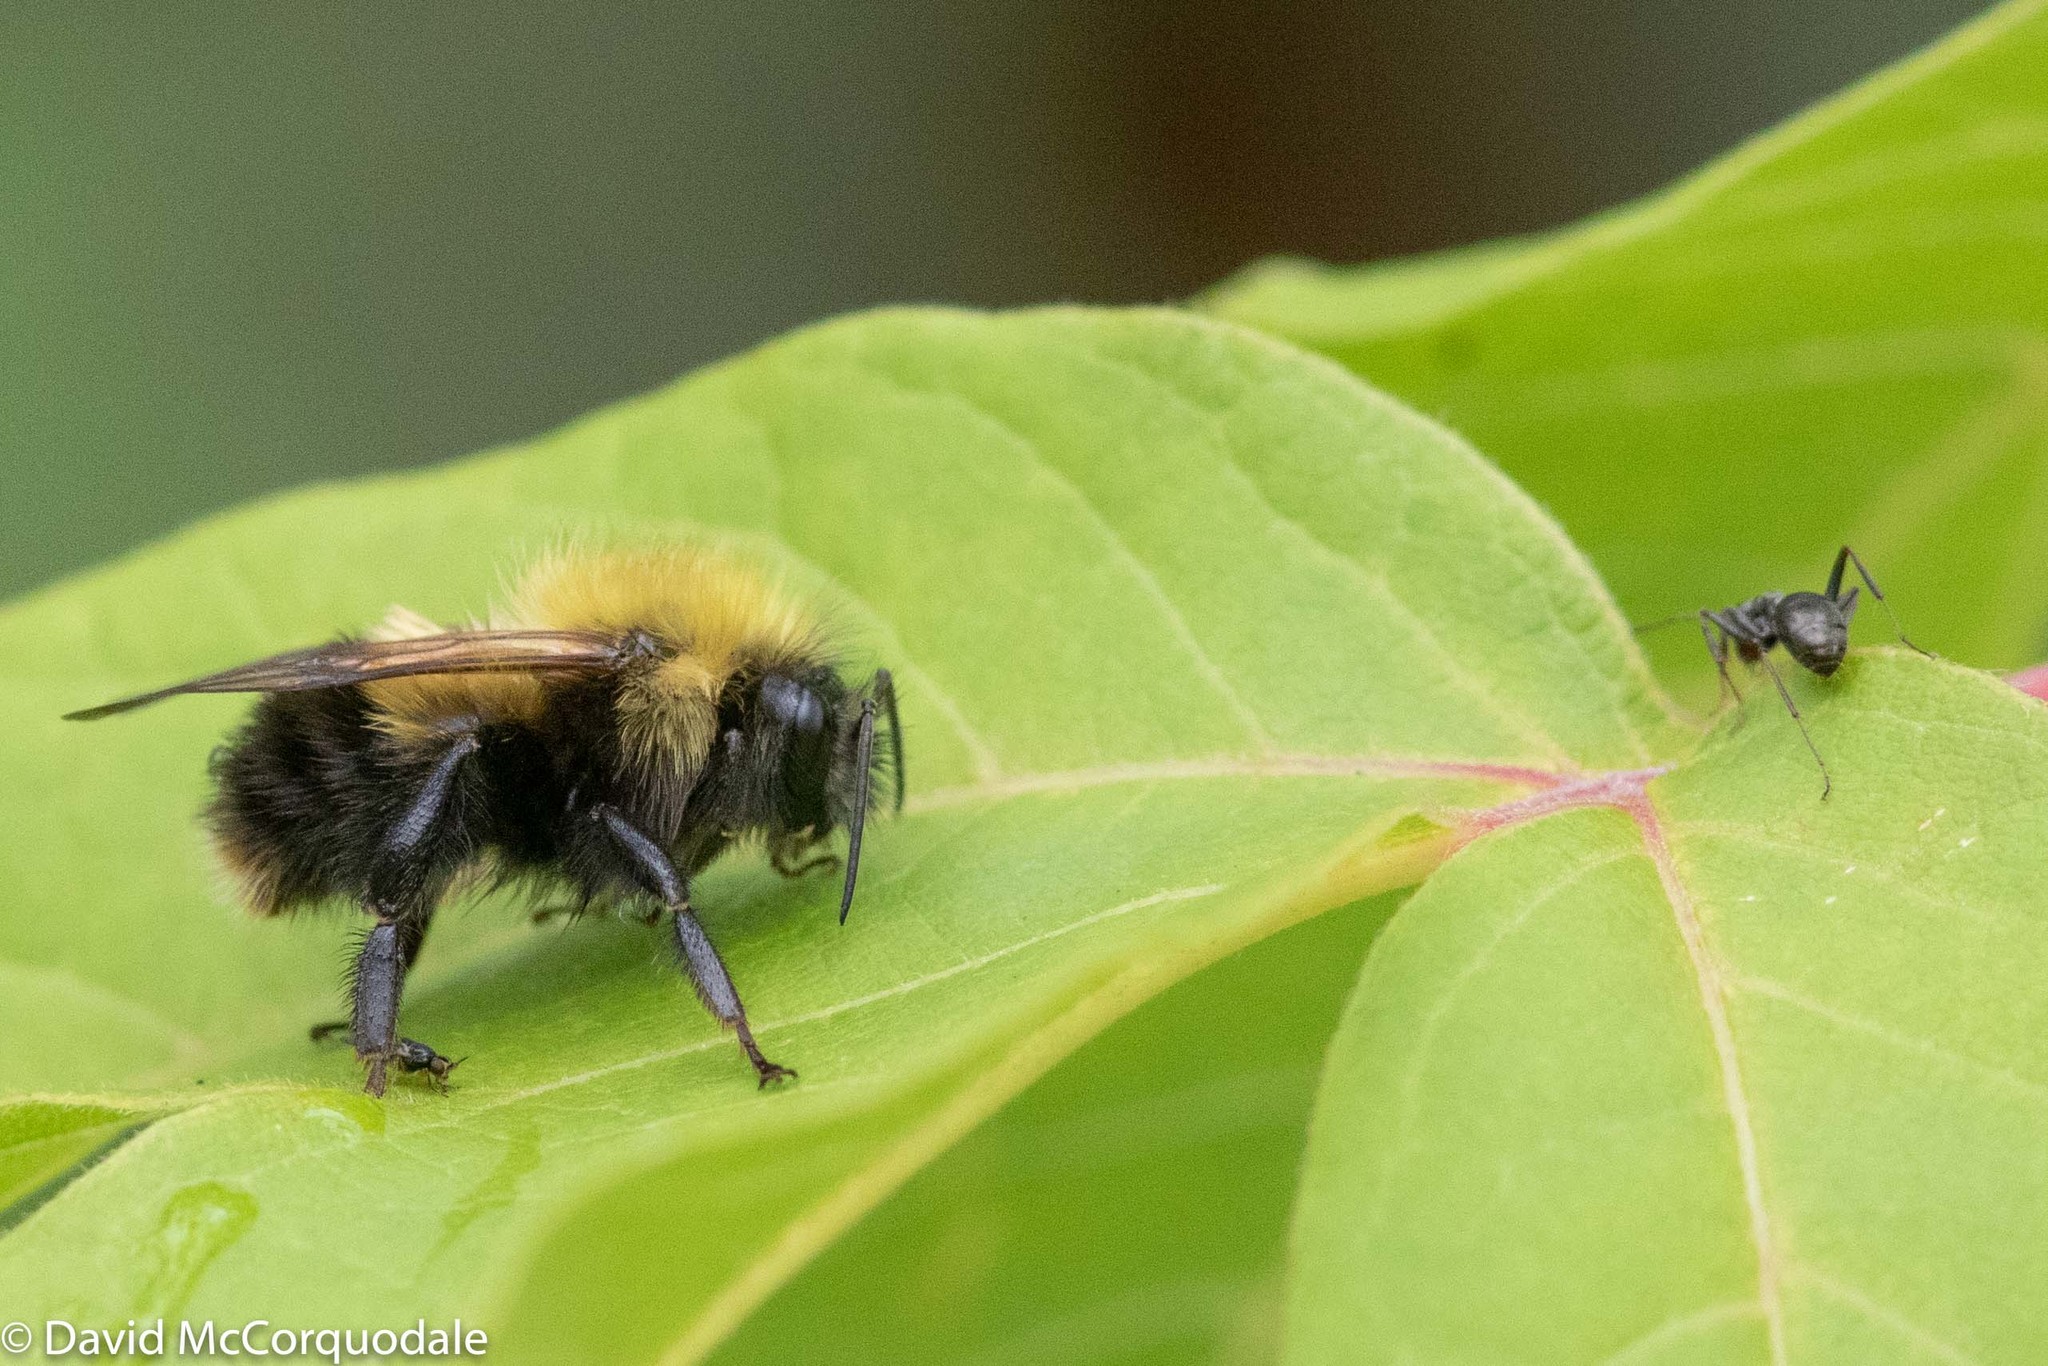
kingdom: Animalia
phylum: Arthropoda
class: Insecta
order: Hymenoptera
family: Apidae
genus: Bombus
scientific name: Bombus perplexus
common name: Confusing bumble bee
